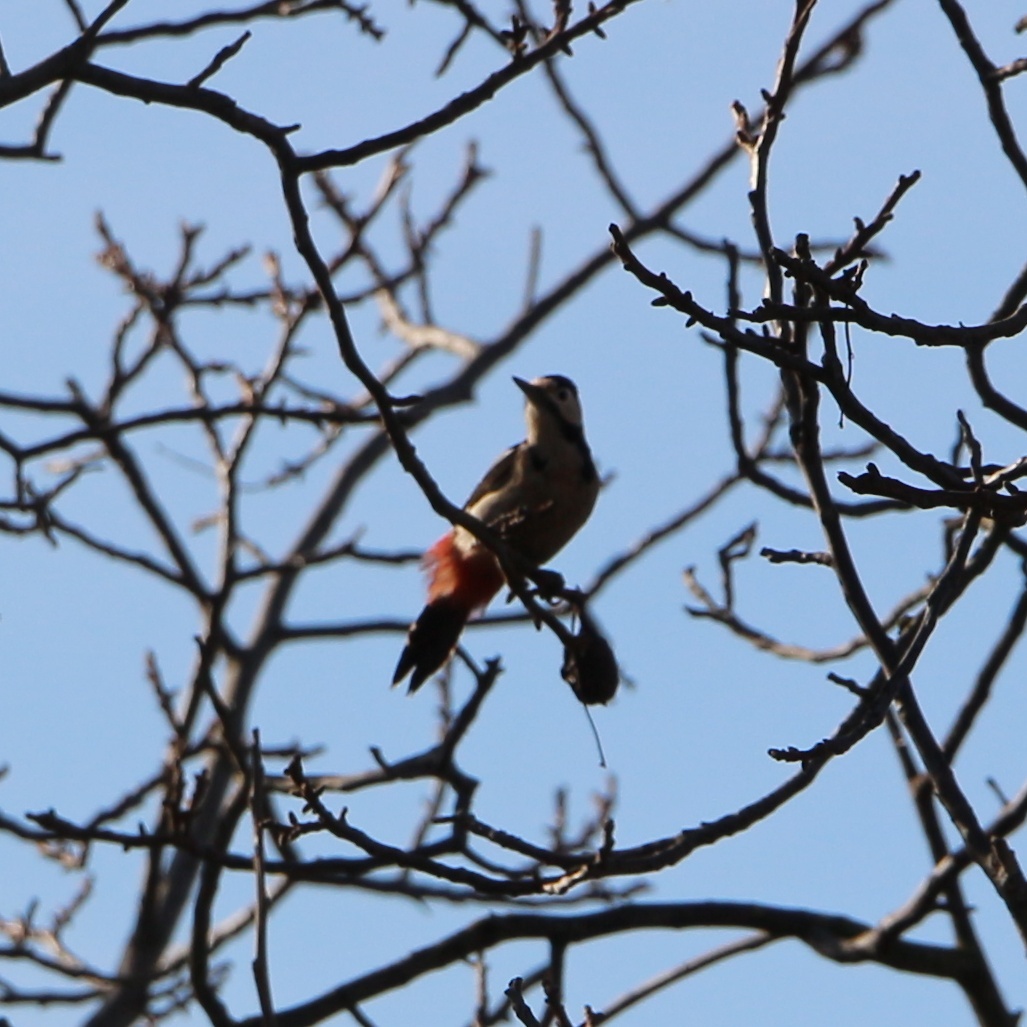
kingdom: Animalia
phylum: Chordata
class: Aves
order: Piciformes
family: Picidae
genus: Dendrocopos
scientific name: Dendrocopos syriacus
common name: Syrian woodpecker
